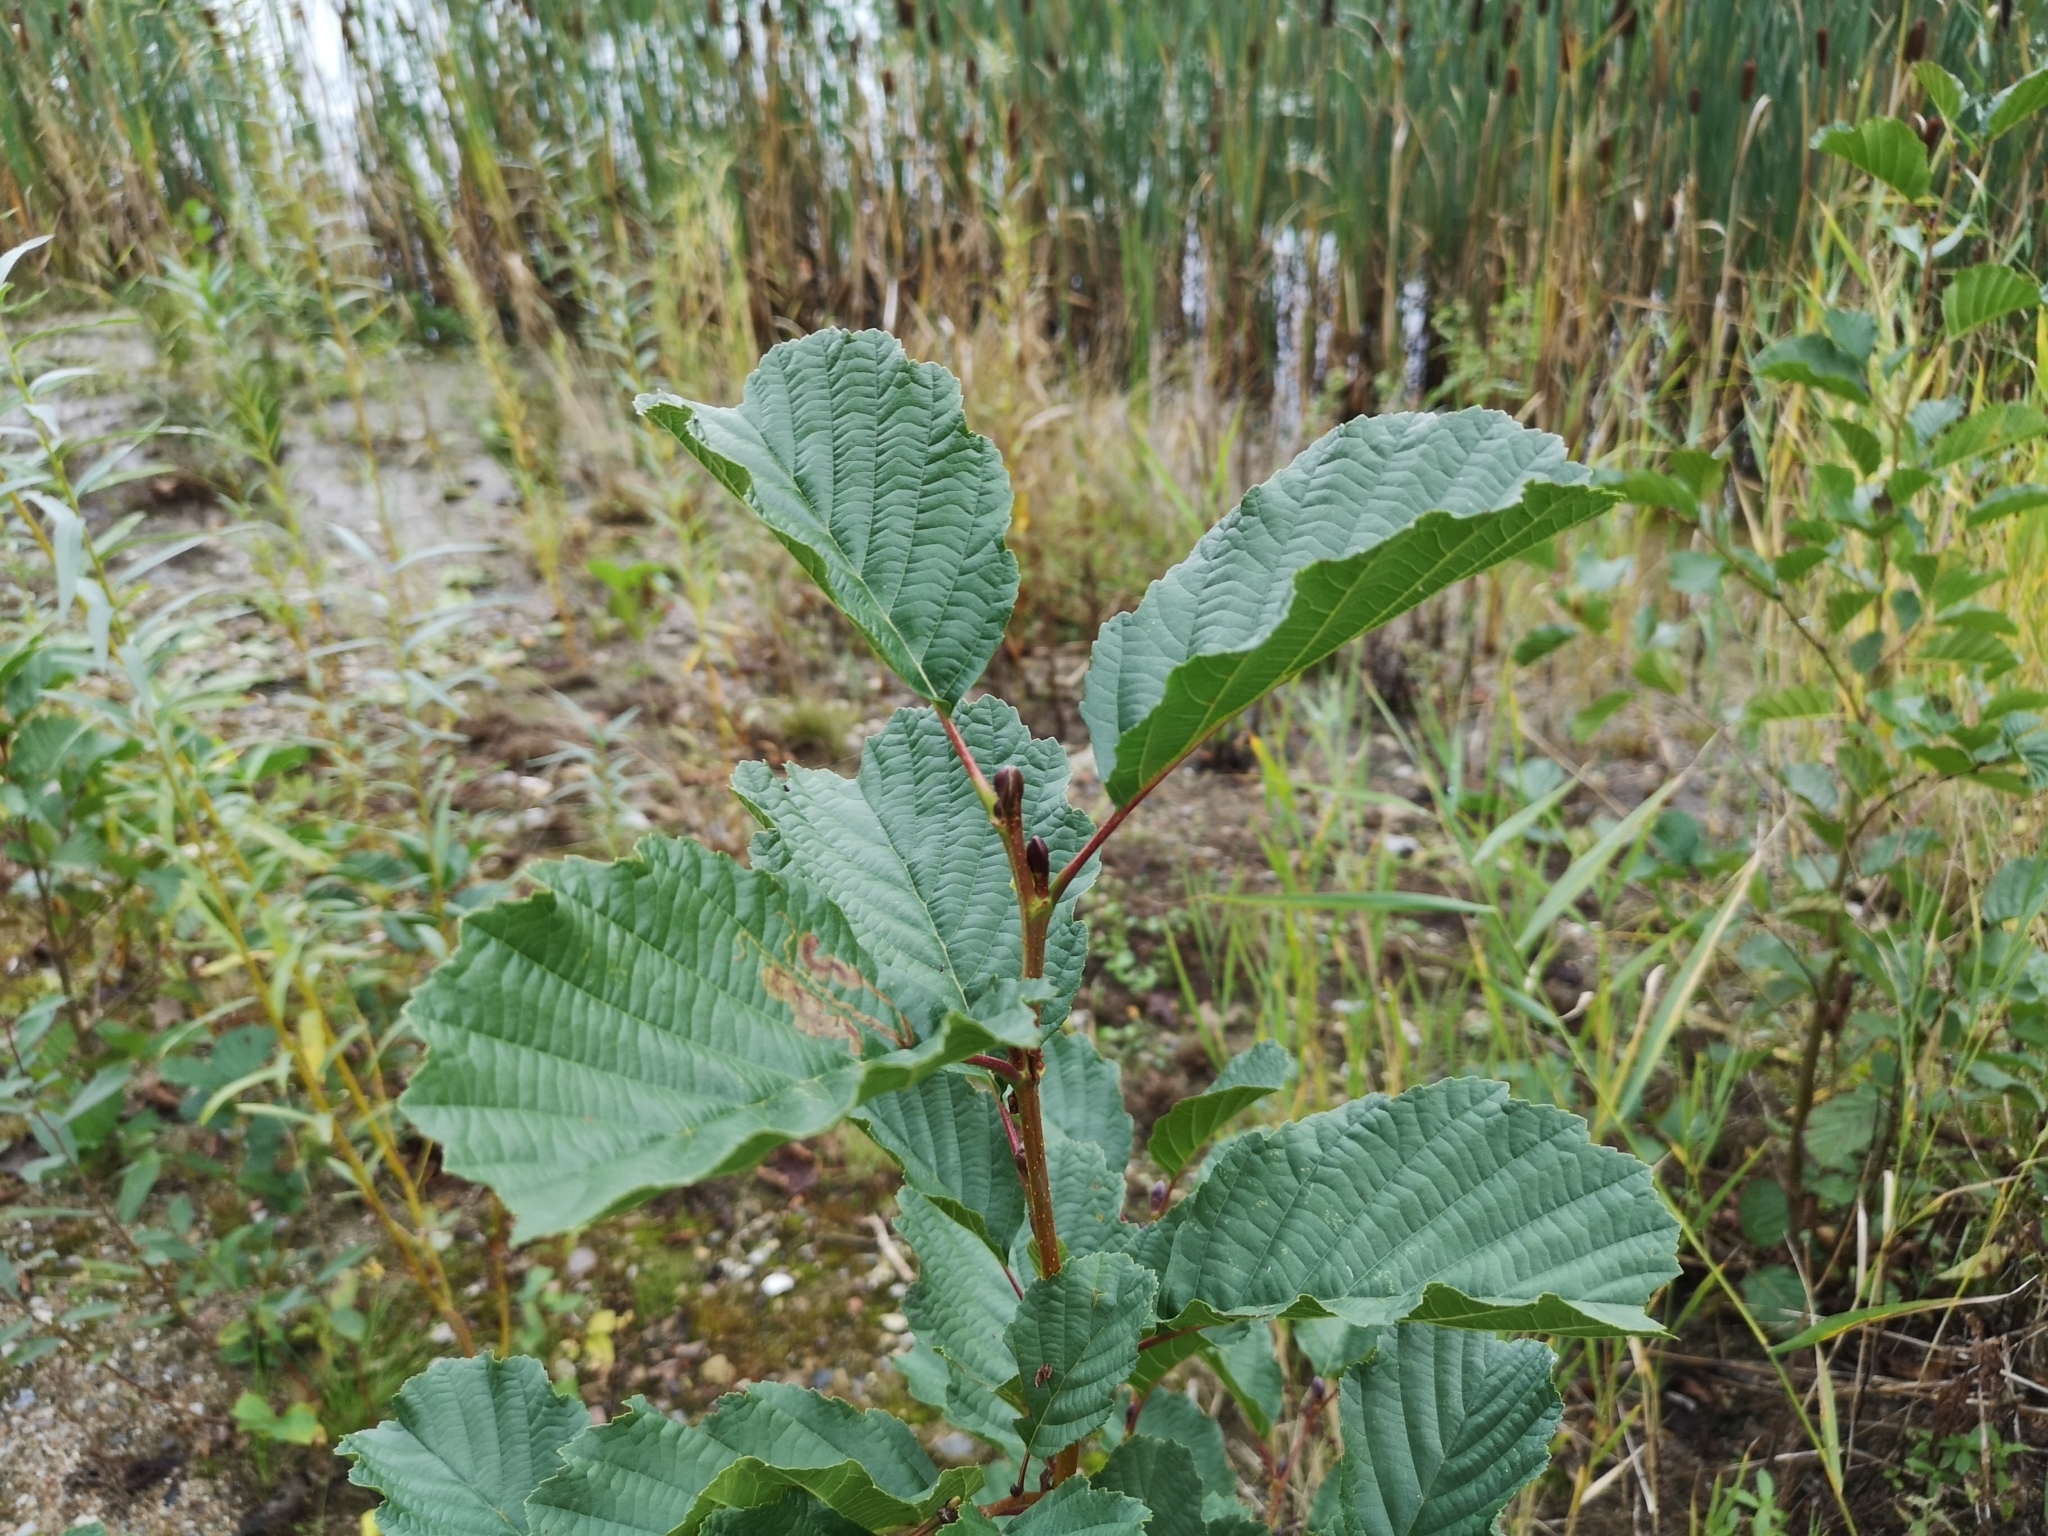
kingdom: Plantae
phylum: Tracheophyta
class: Magnoliopsida
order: Fagales
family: Betulaceae
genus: Alnus
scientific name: Alnus glutinosa
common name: Black alder
